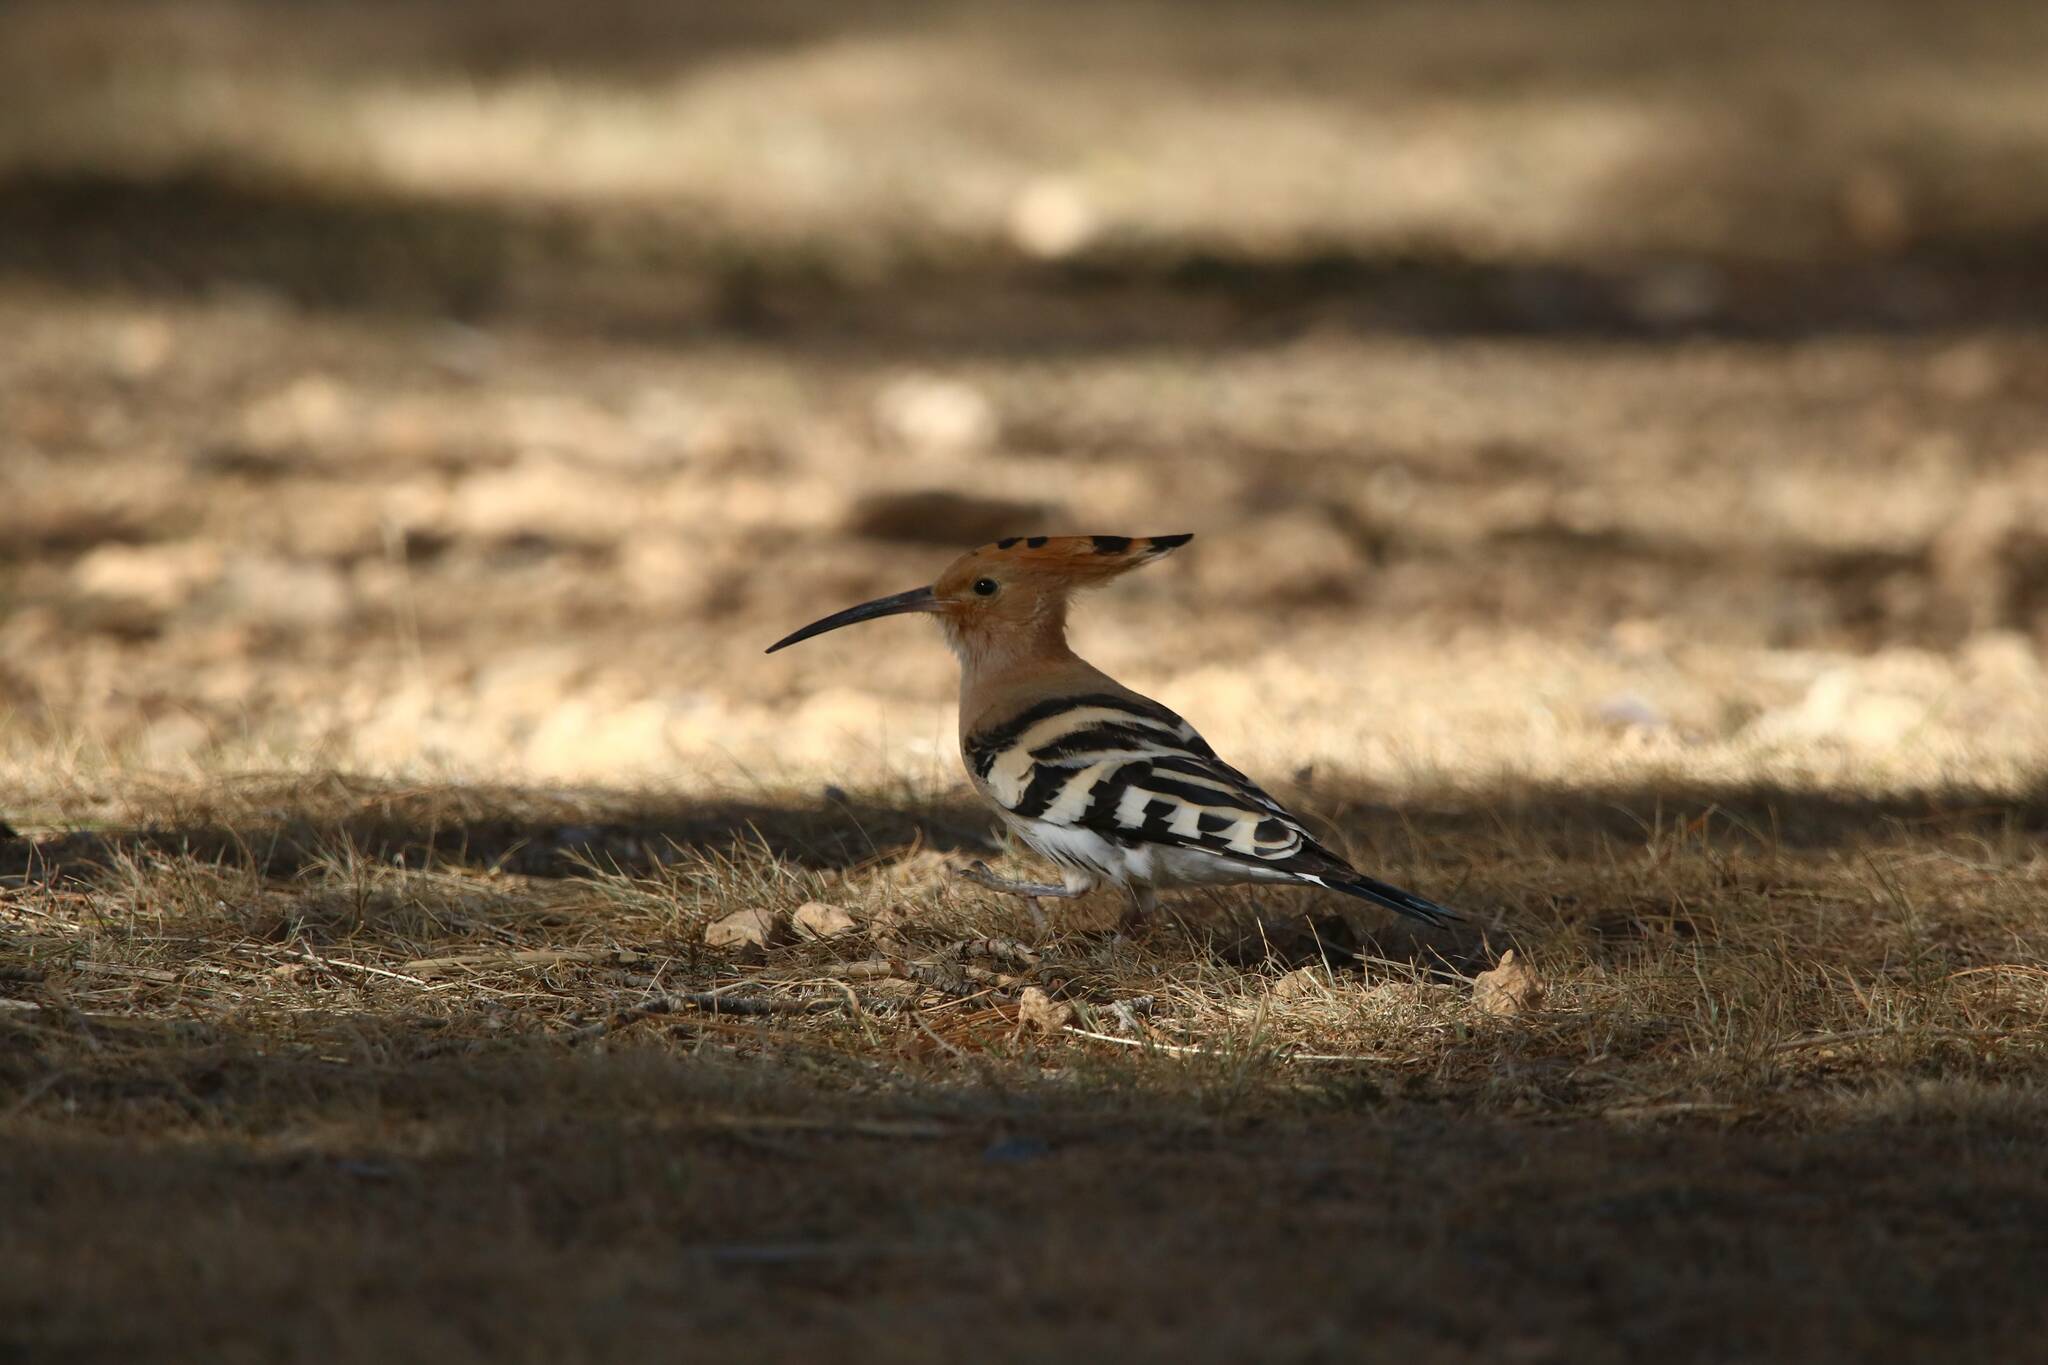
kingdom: Animalia
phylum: Chordata
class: Aves
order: Bucerotiformes
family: Upupidae
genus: Upupa
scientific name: Upupa epops
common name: Eurasian hoopoe
